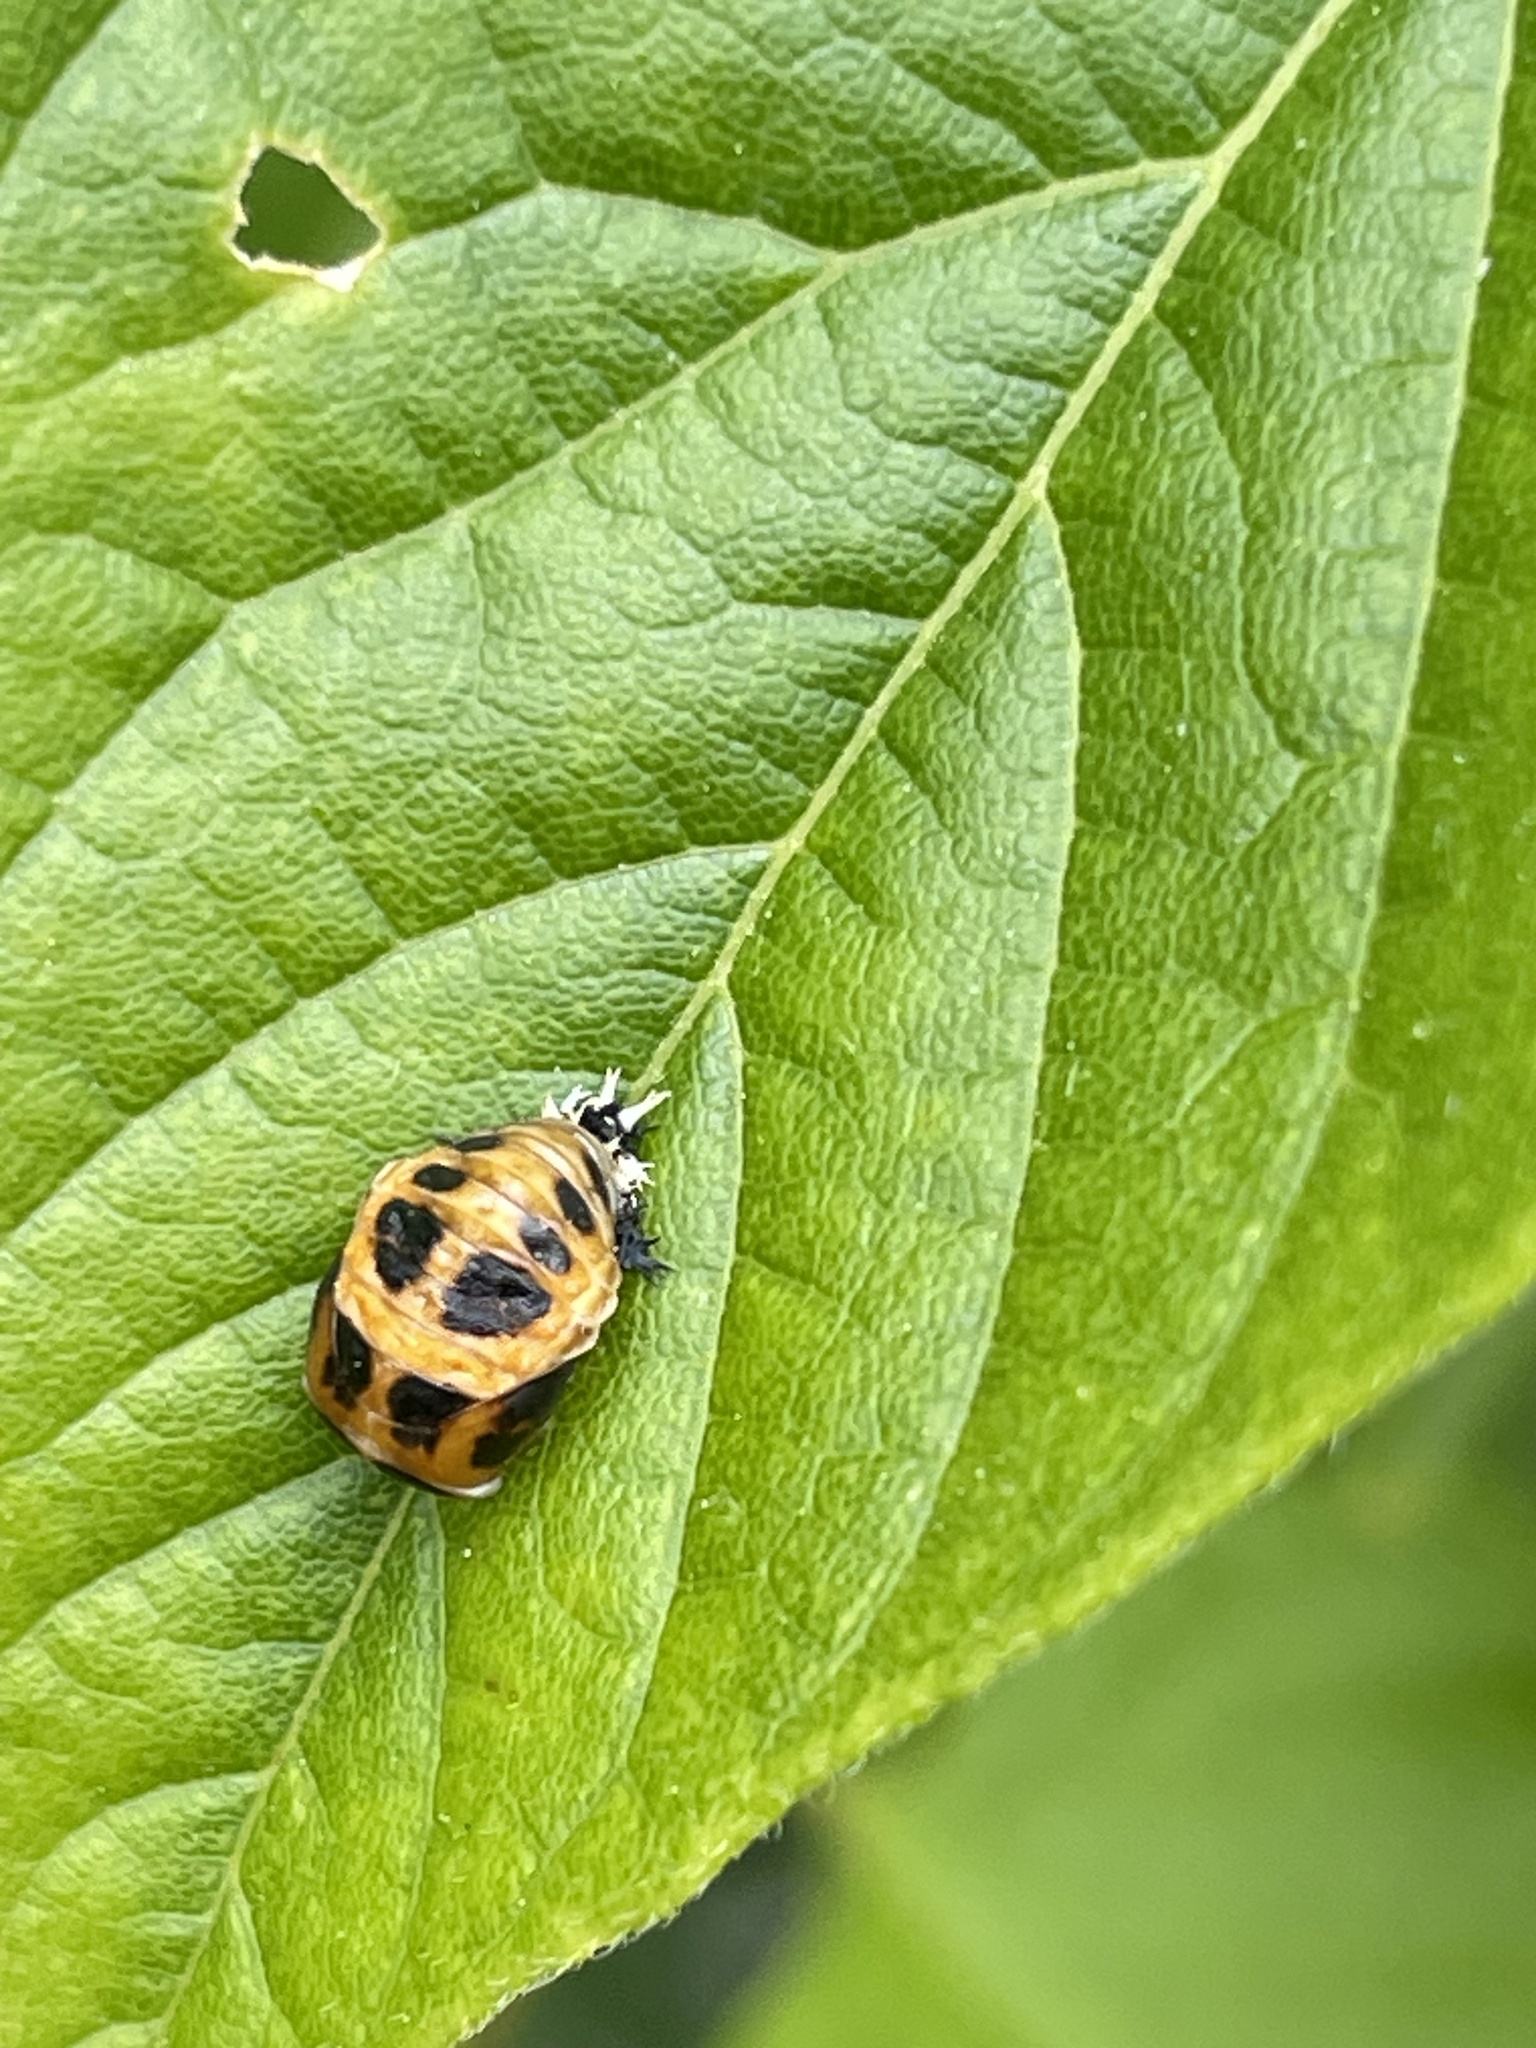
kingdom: Animalia
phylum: Arthropoda
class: Insecta
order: Coleoptera
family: Coccinellidae
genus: Harmonia
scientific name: Harmonia axyridis
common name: Harlequin ladybird
